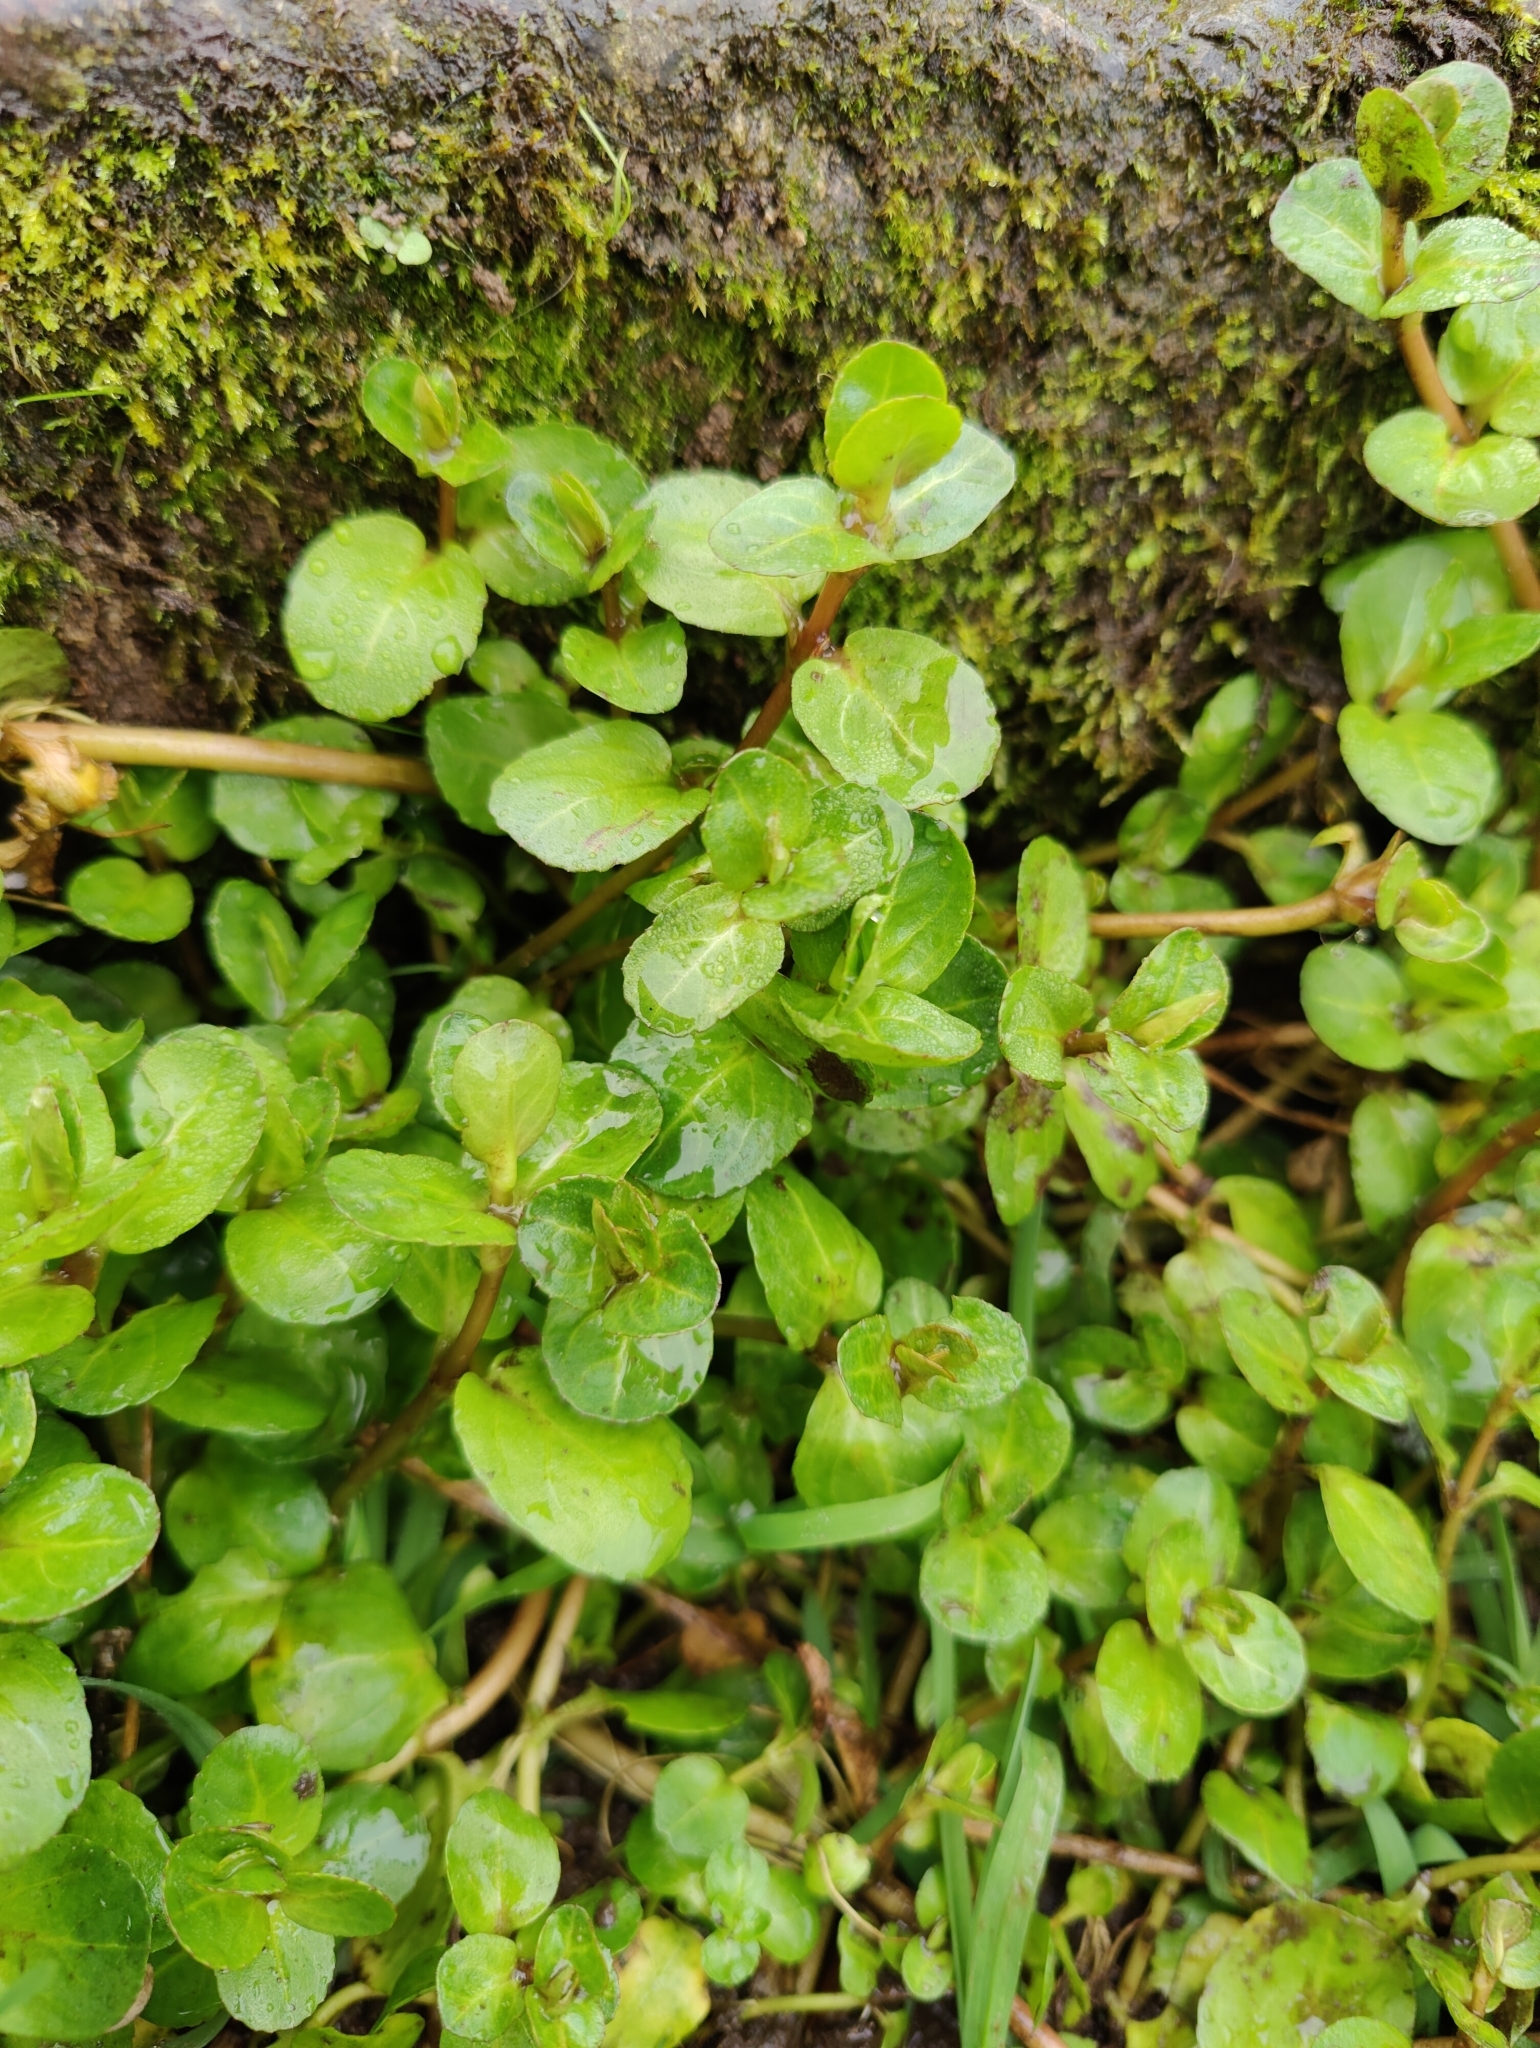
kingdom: Plantae
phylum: Tracheophyta
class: Magnoliopsida
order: Lamiales
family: Plantaginaceae
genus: Veronica
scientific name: Veronica beccabunga
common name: Brooklime
